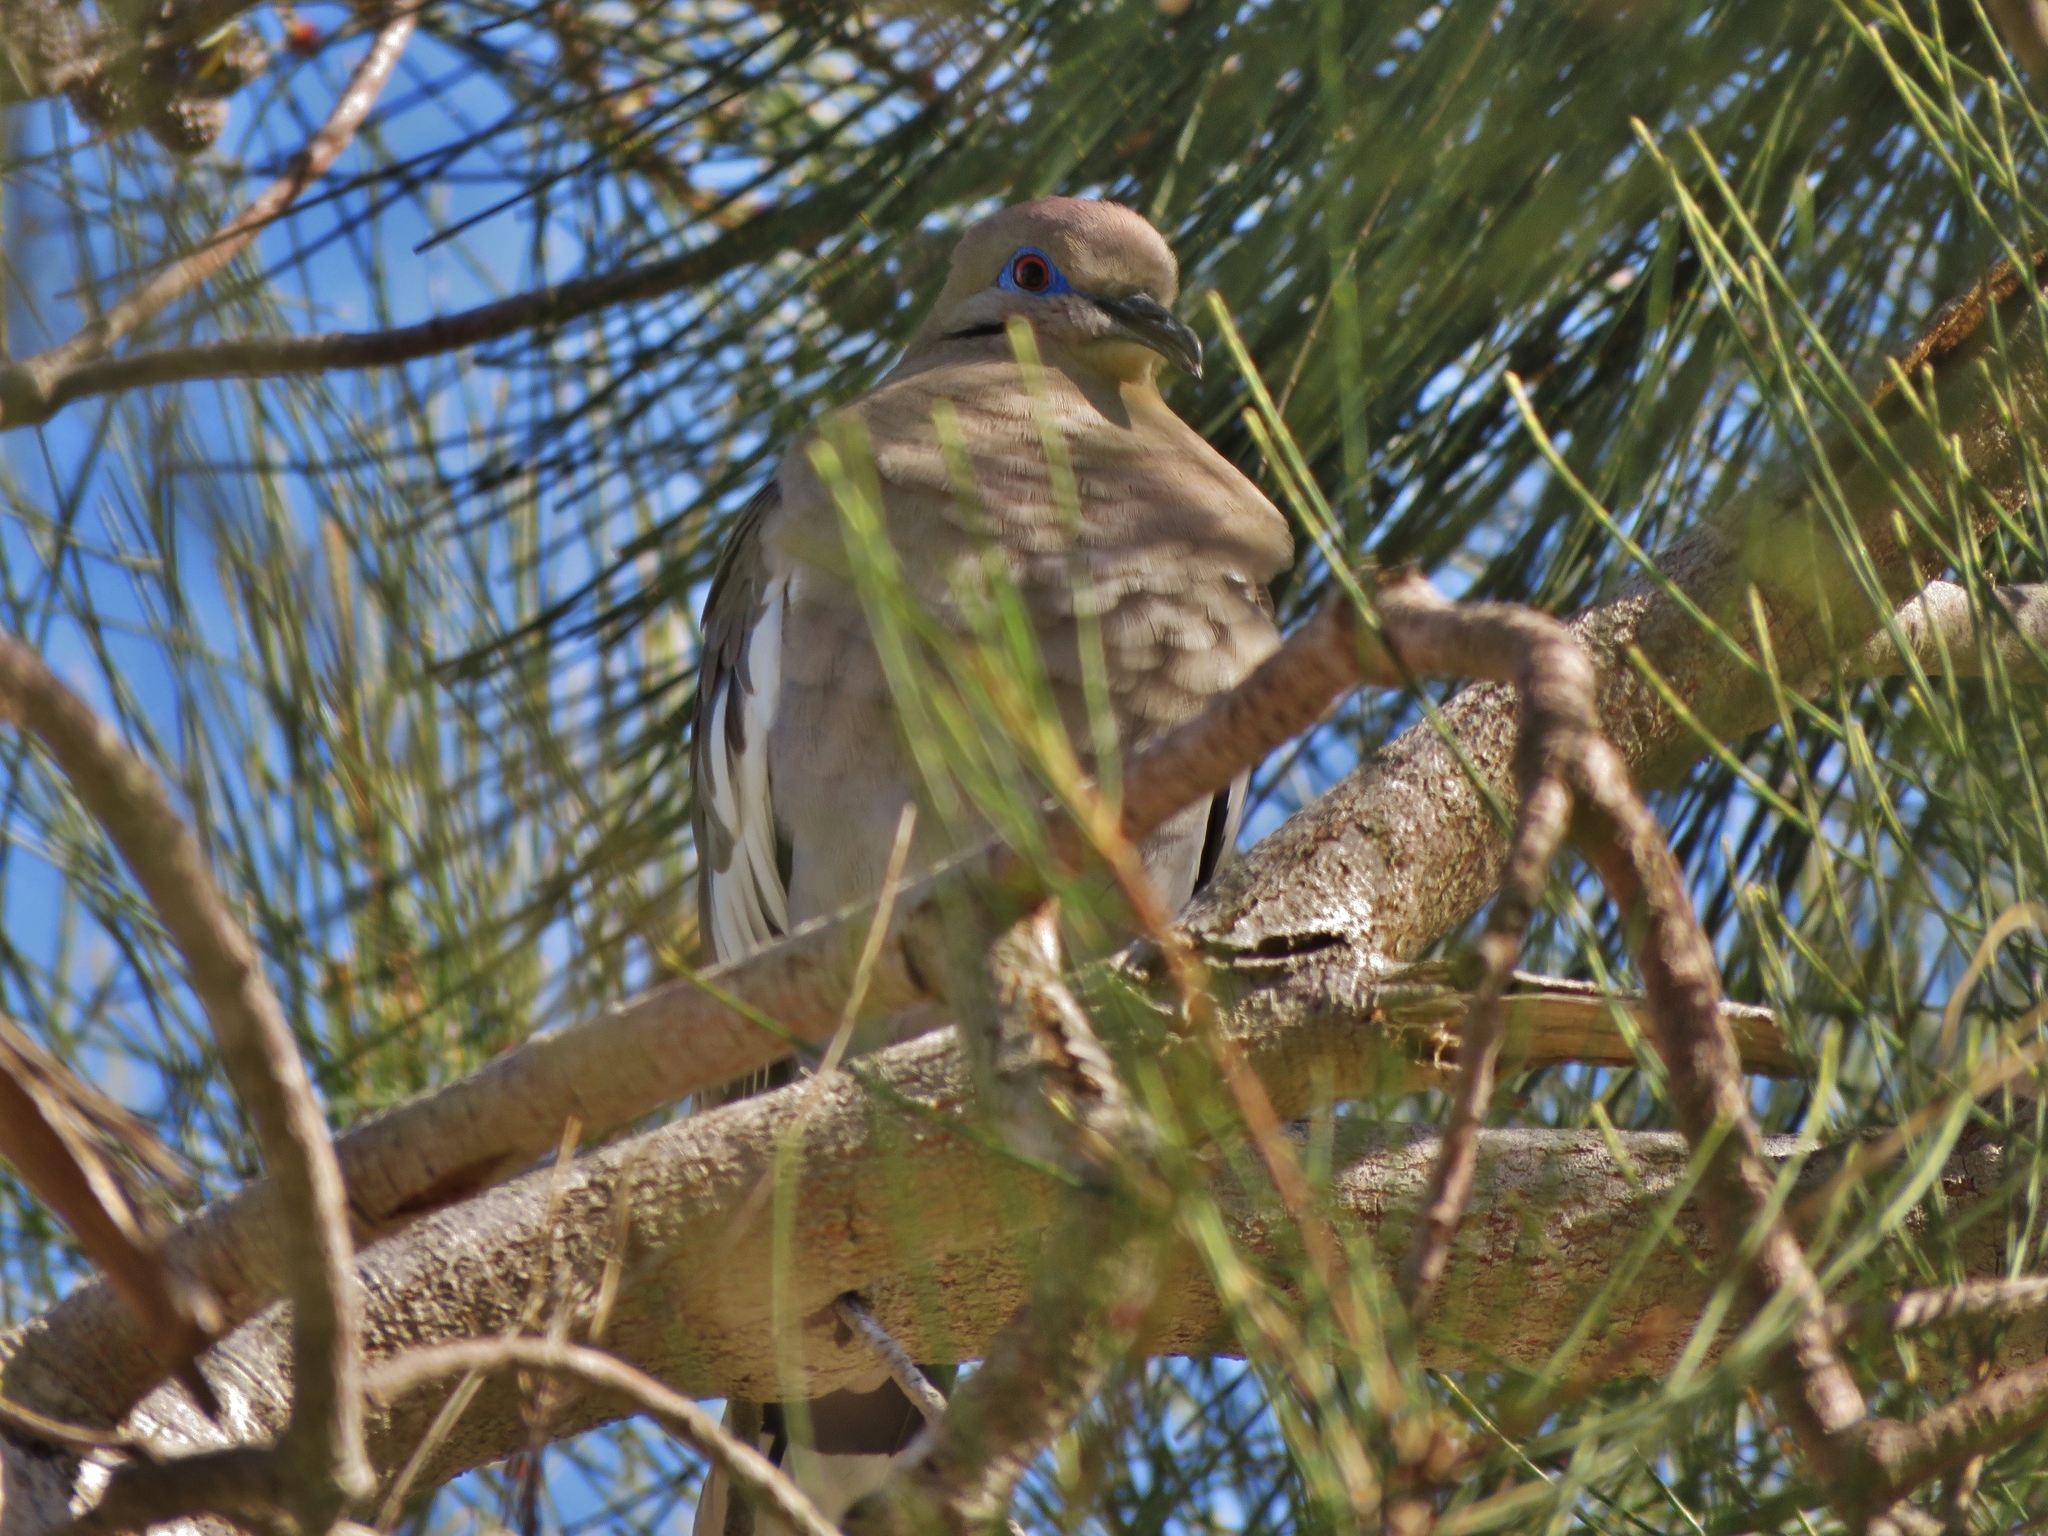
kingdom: Animalia
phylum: Chordata
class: Aves
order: Columbiformes
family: Columbidae
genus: Zenaida
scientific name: Zenaida asiatica
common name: White-winged dove
